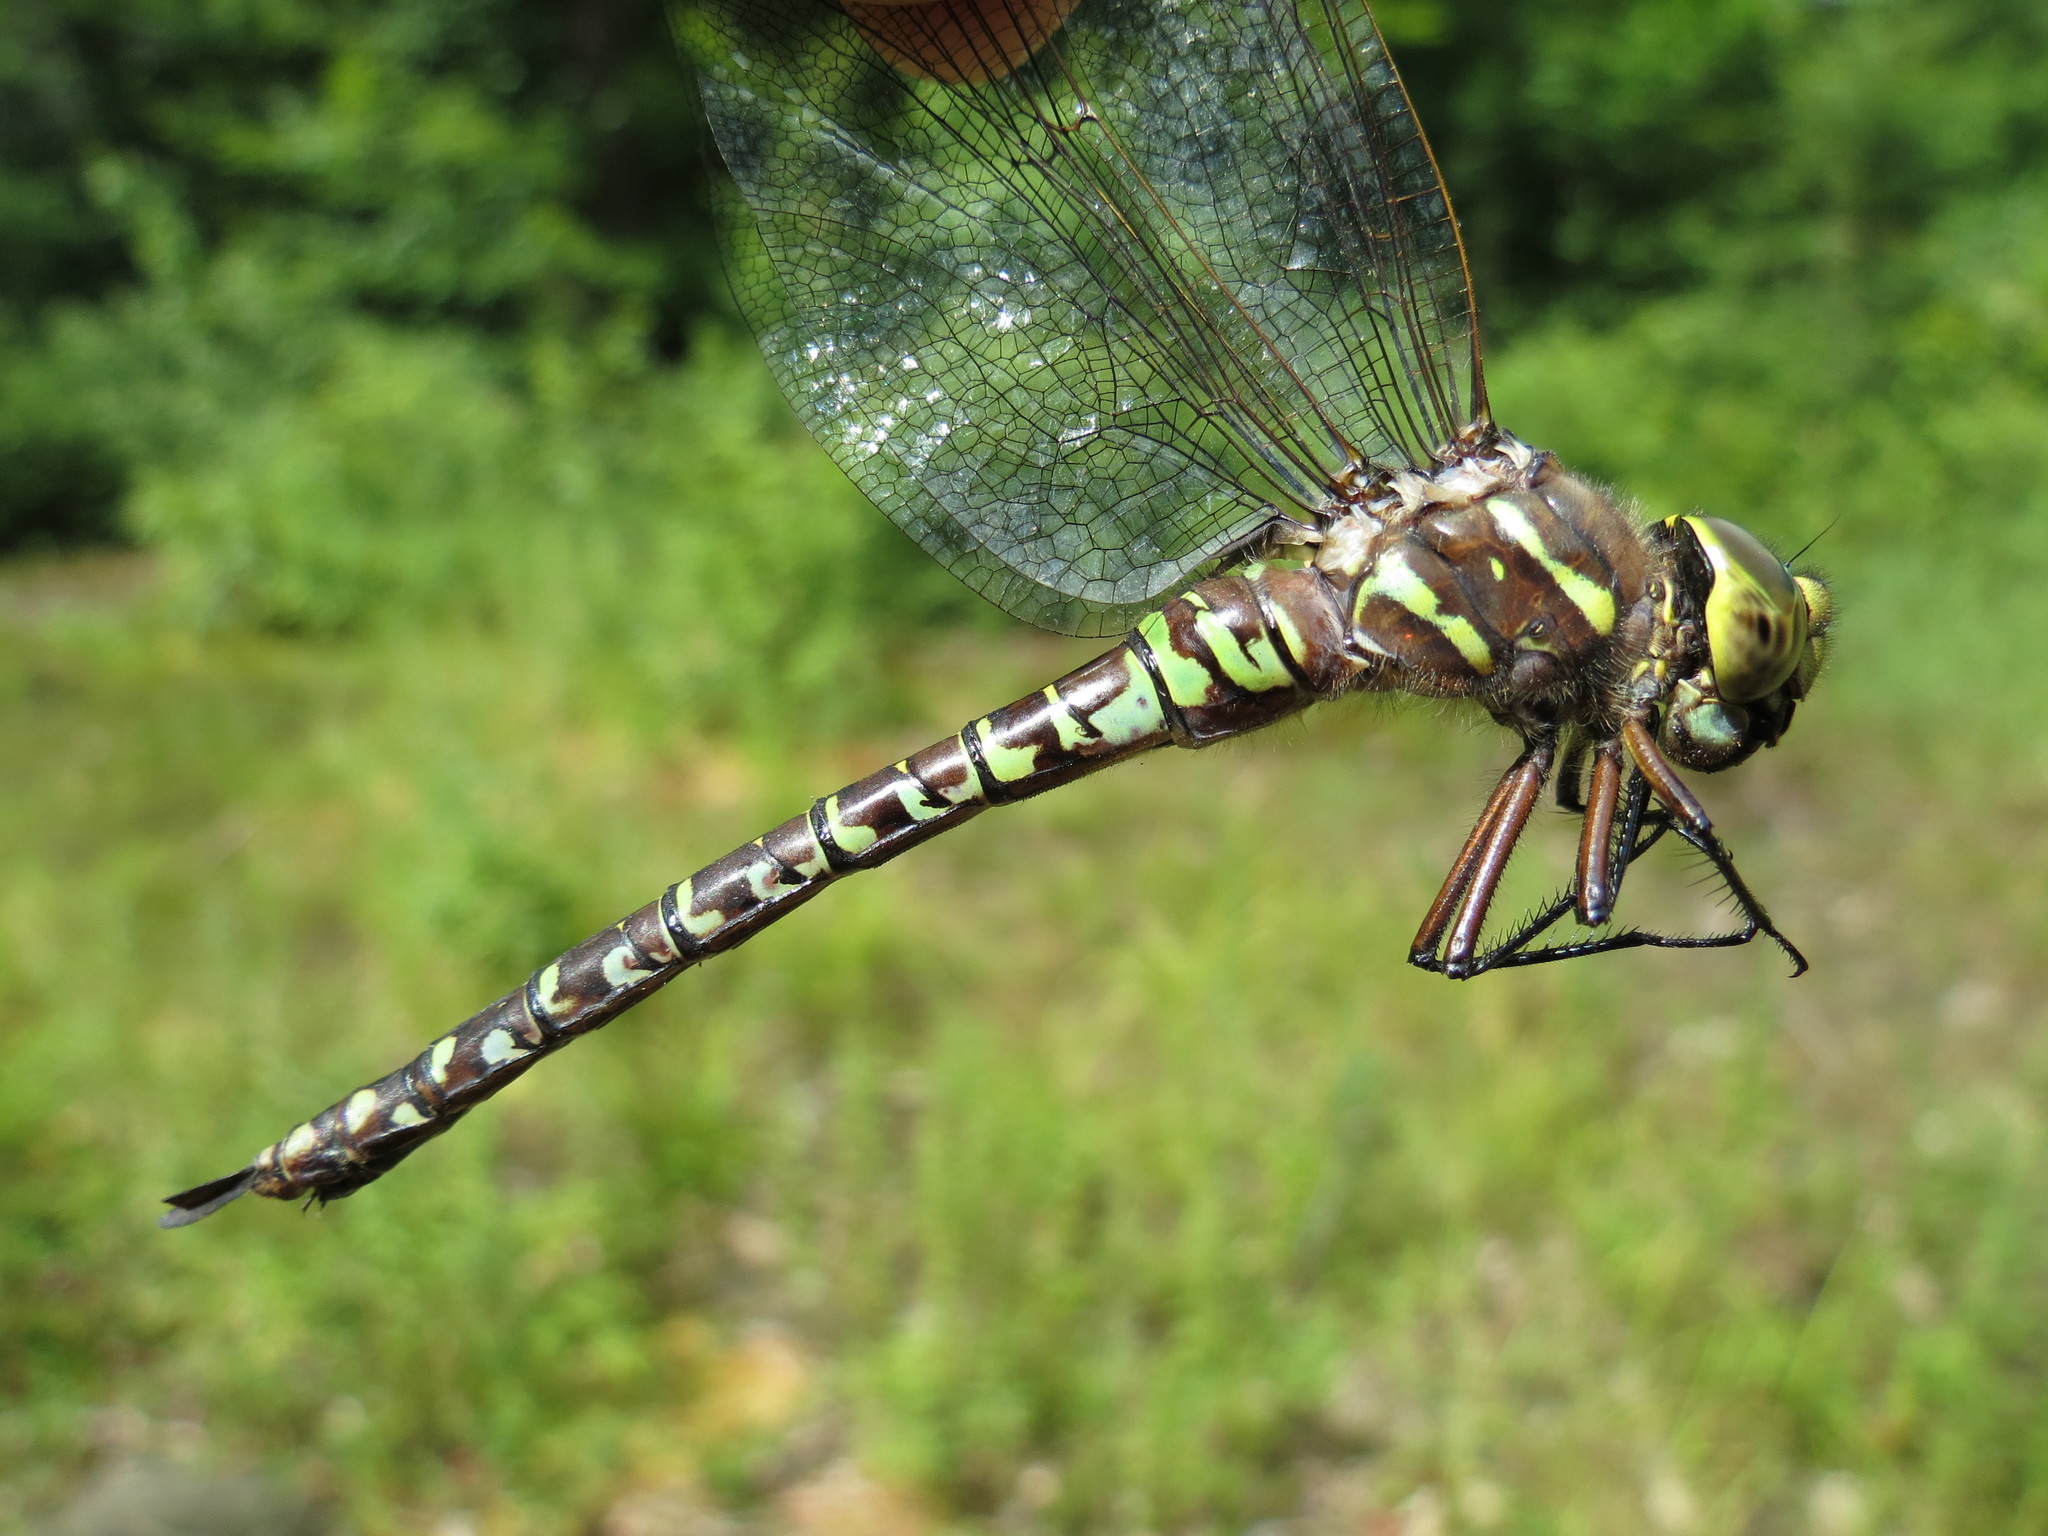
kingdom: Animalia
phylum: Arthropoda
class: Insecta
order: Odonata
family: Aeshnidae
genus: Aeshna
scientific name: Aeshna interrupta
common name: Variable darner
